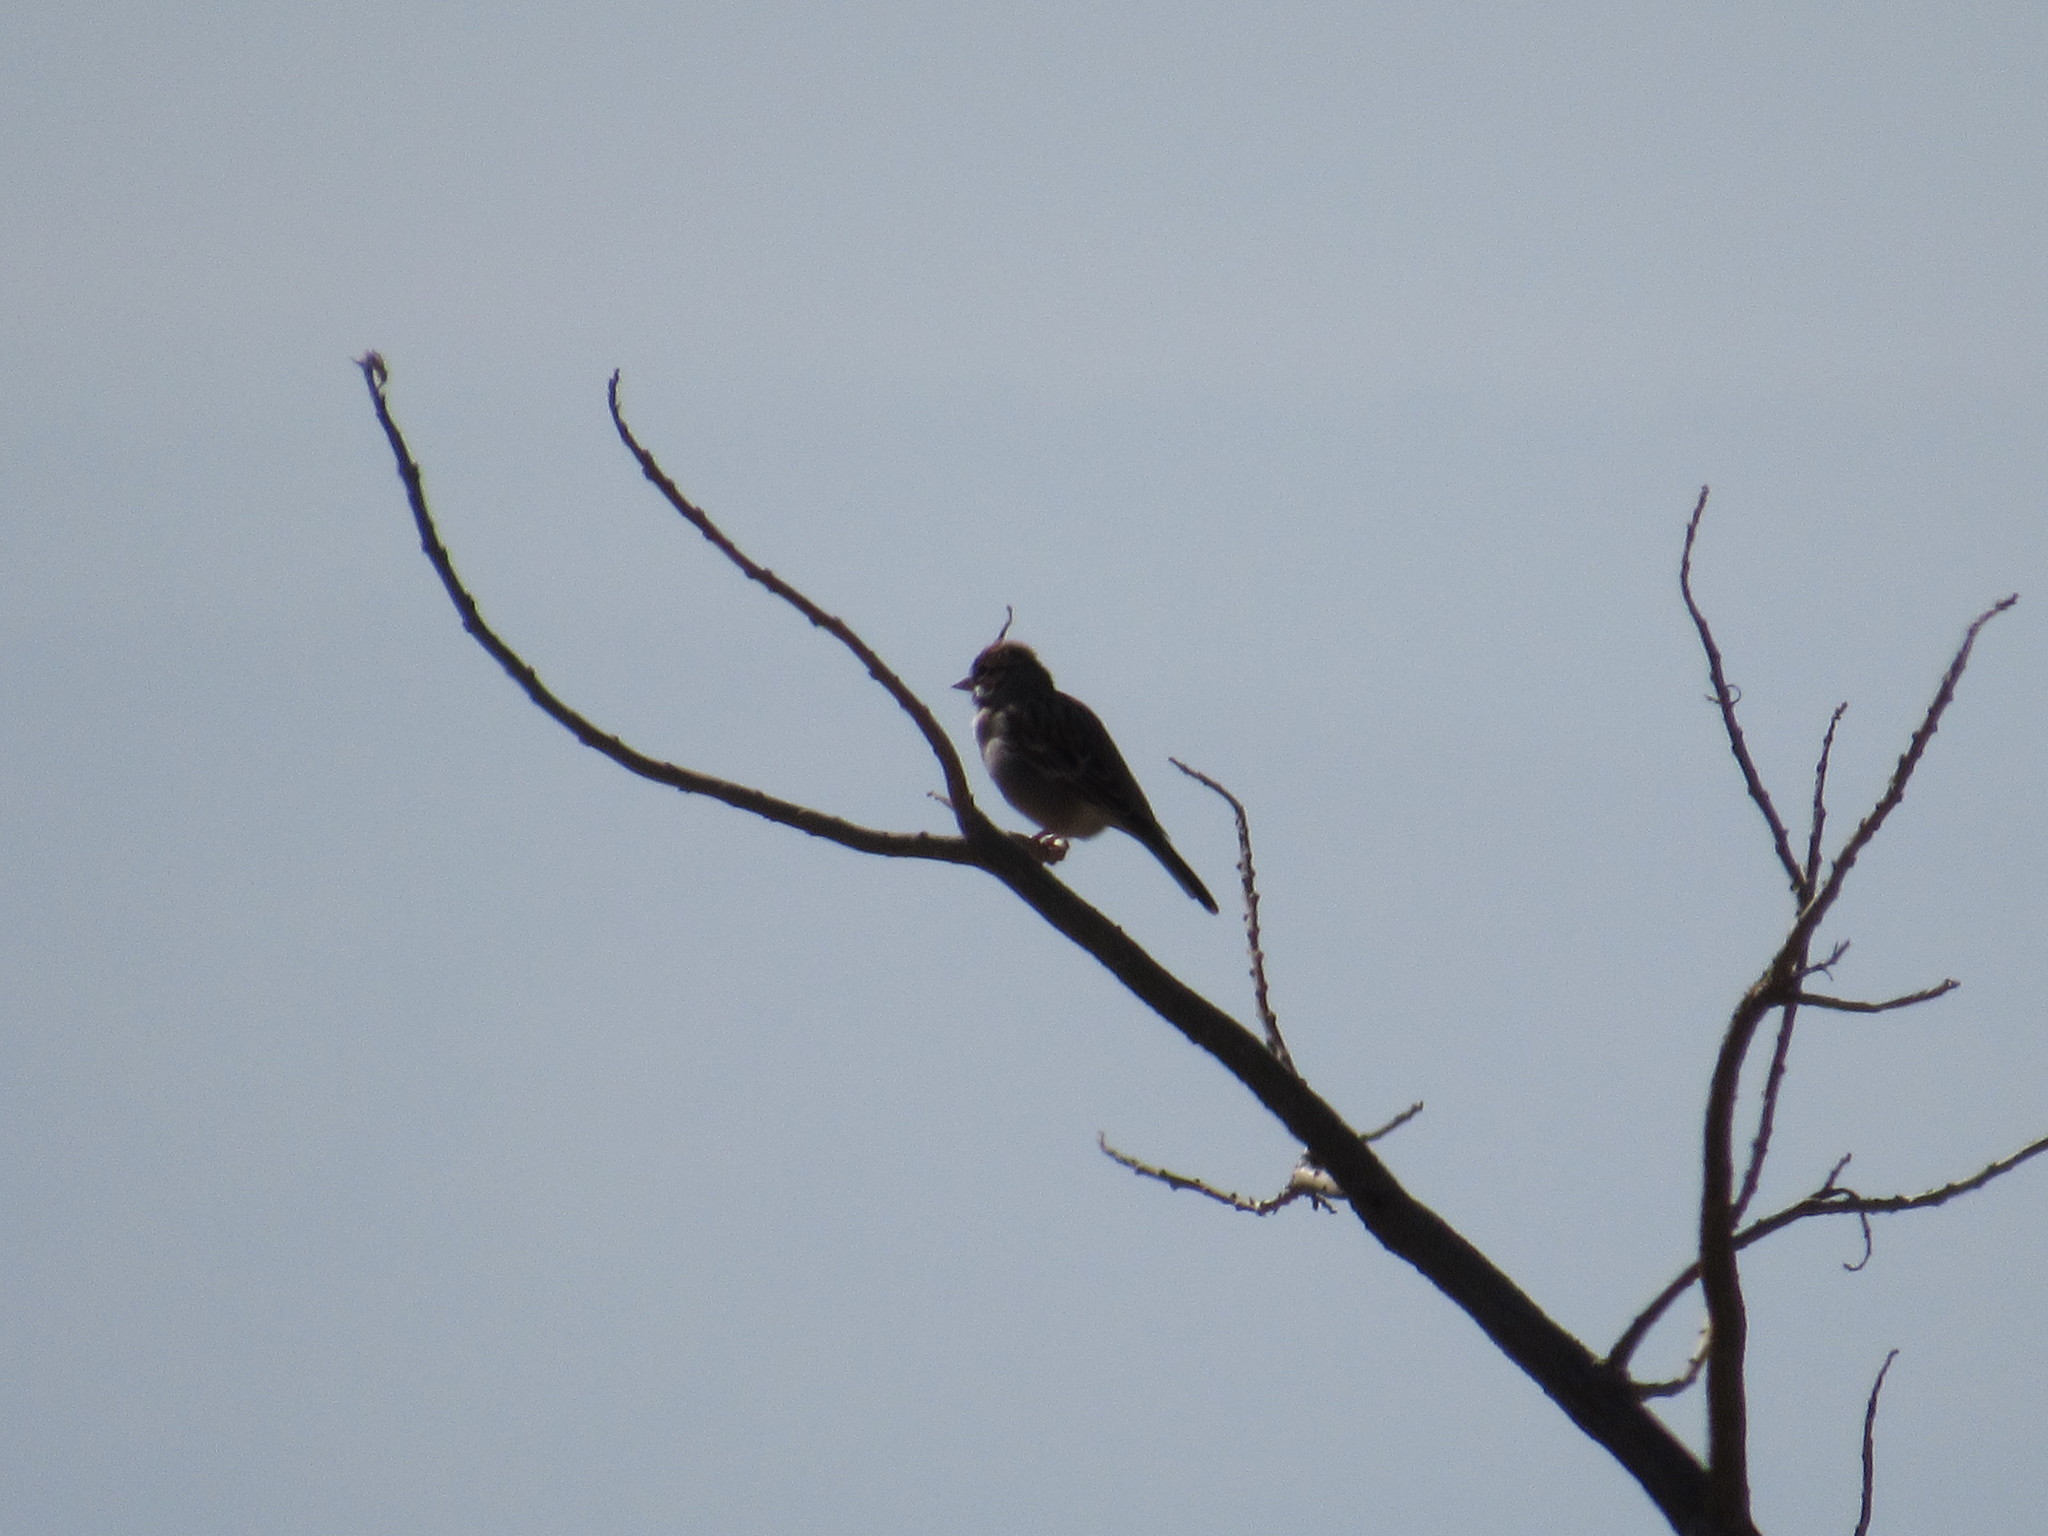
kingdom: Animalia
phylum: Chordata
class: Aves
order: Passeriformes
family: Passerellidae
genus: Chondestes
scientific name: Chondestes grammacus
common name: Lark sparrow
